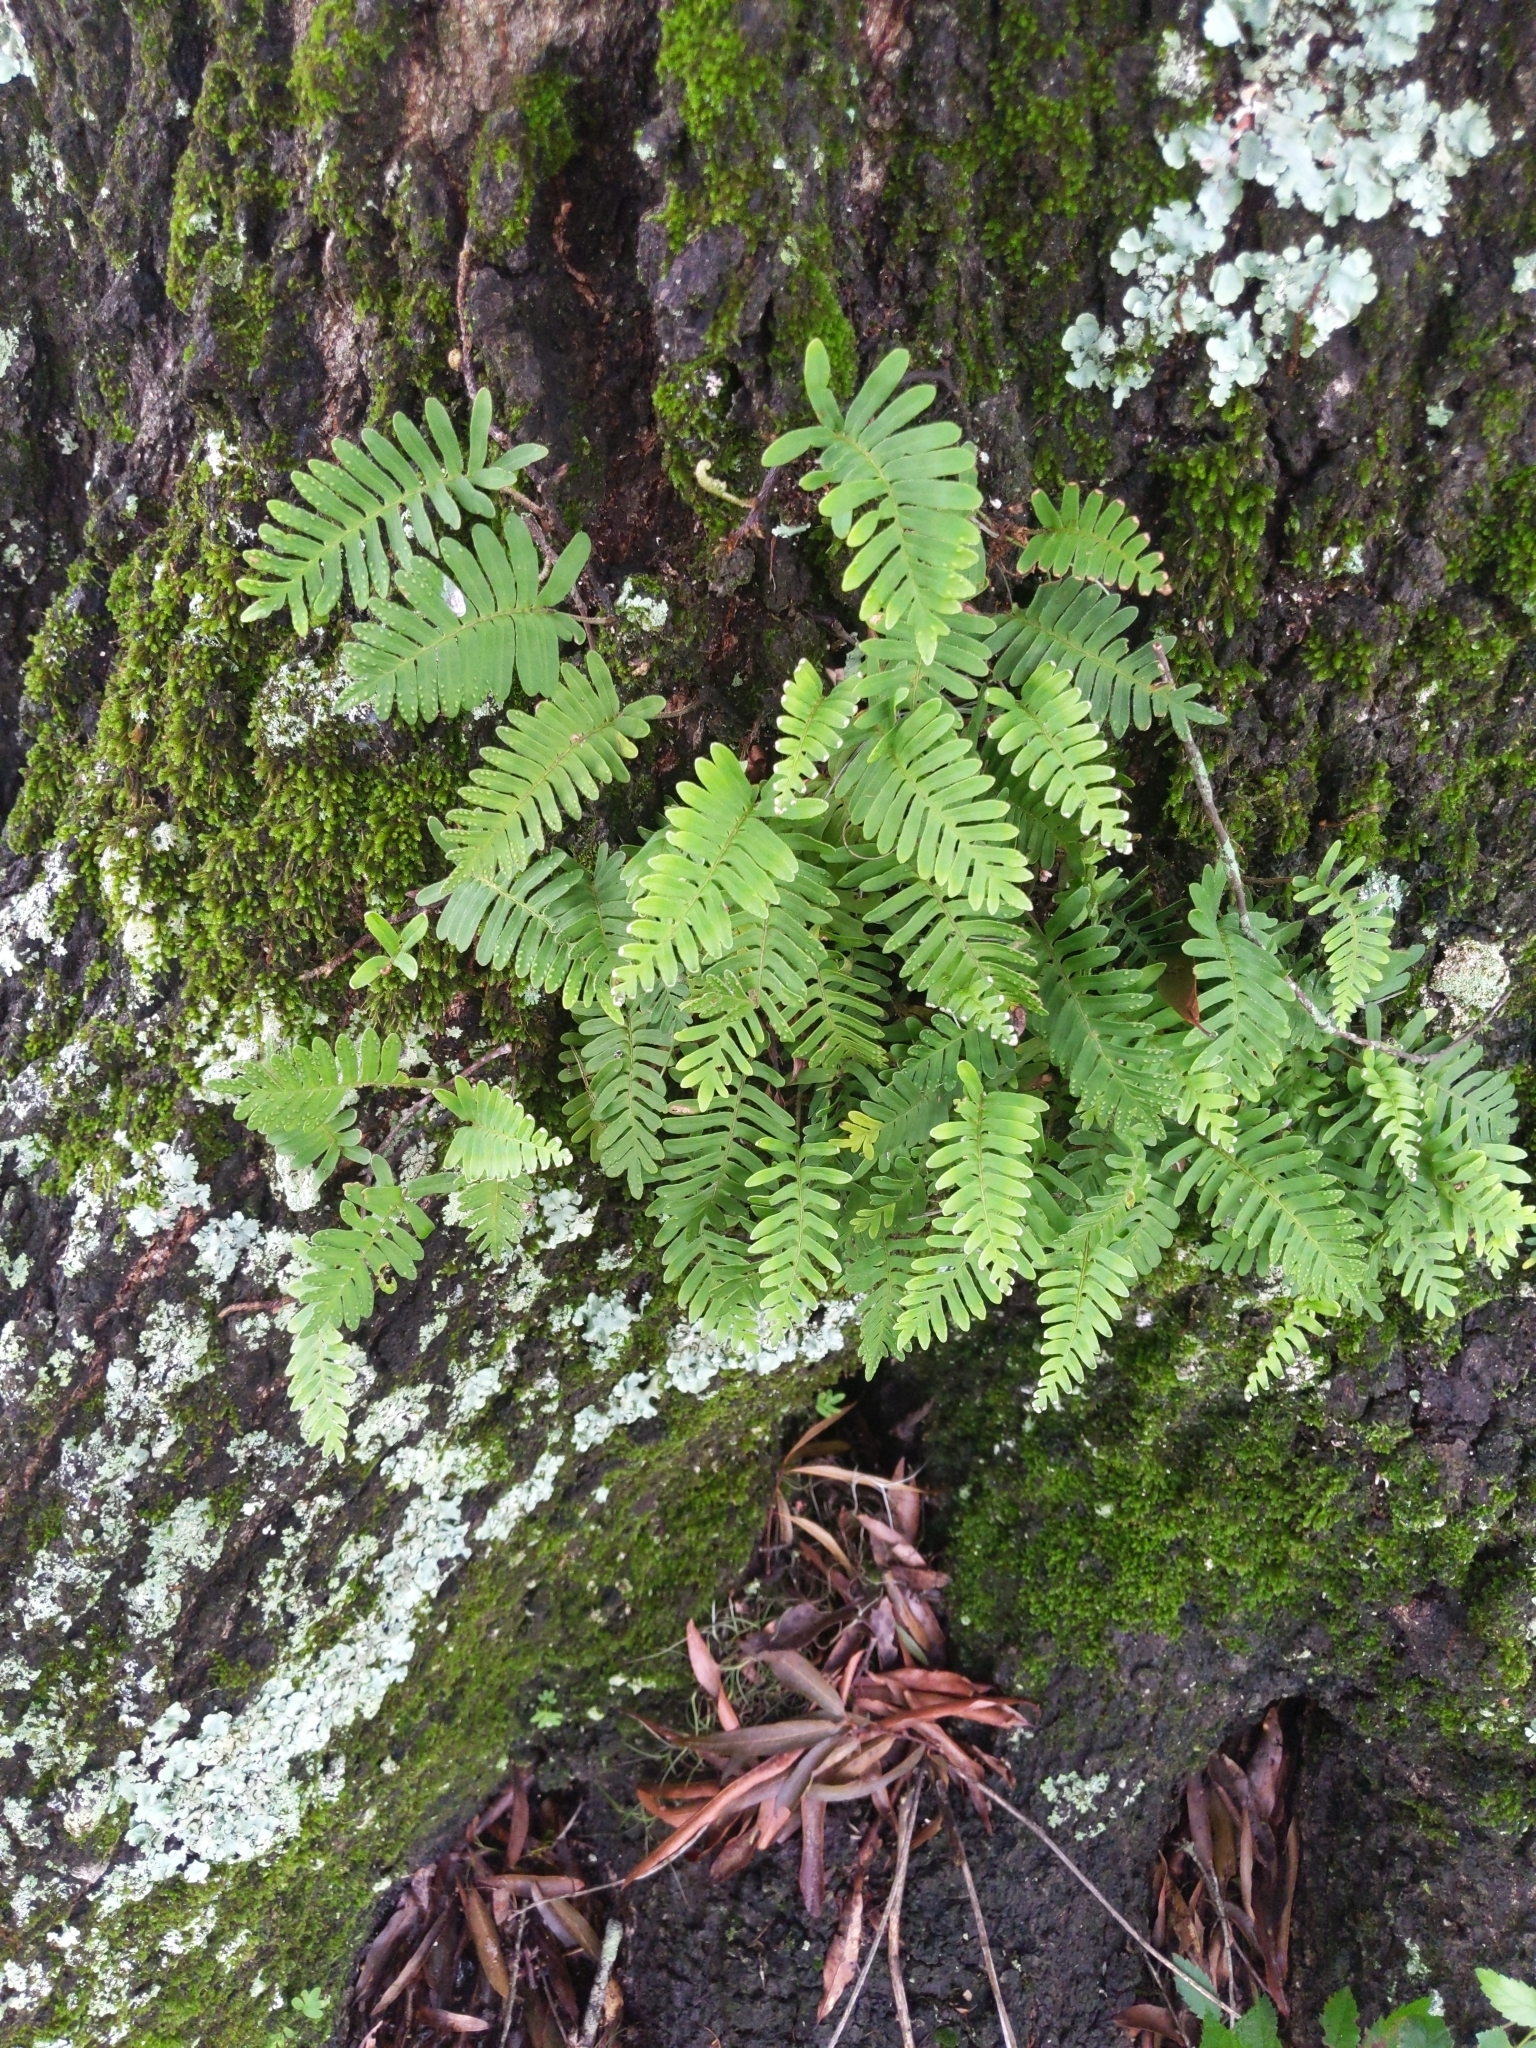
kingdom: Plantae
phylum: Tracheophyta
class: Polypodiopsida
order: Polypodiales
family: Polypodiaceae
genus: Pleopeltis
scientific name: Pleopeltis michauxiana
